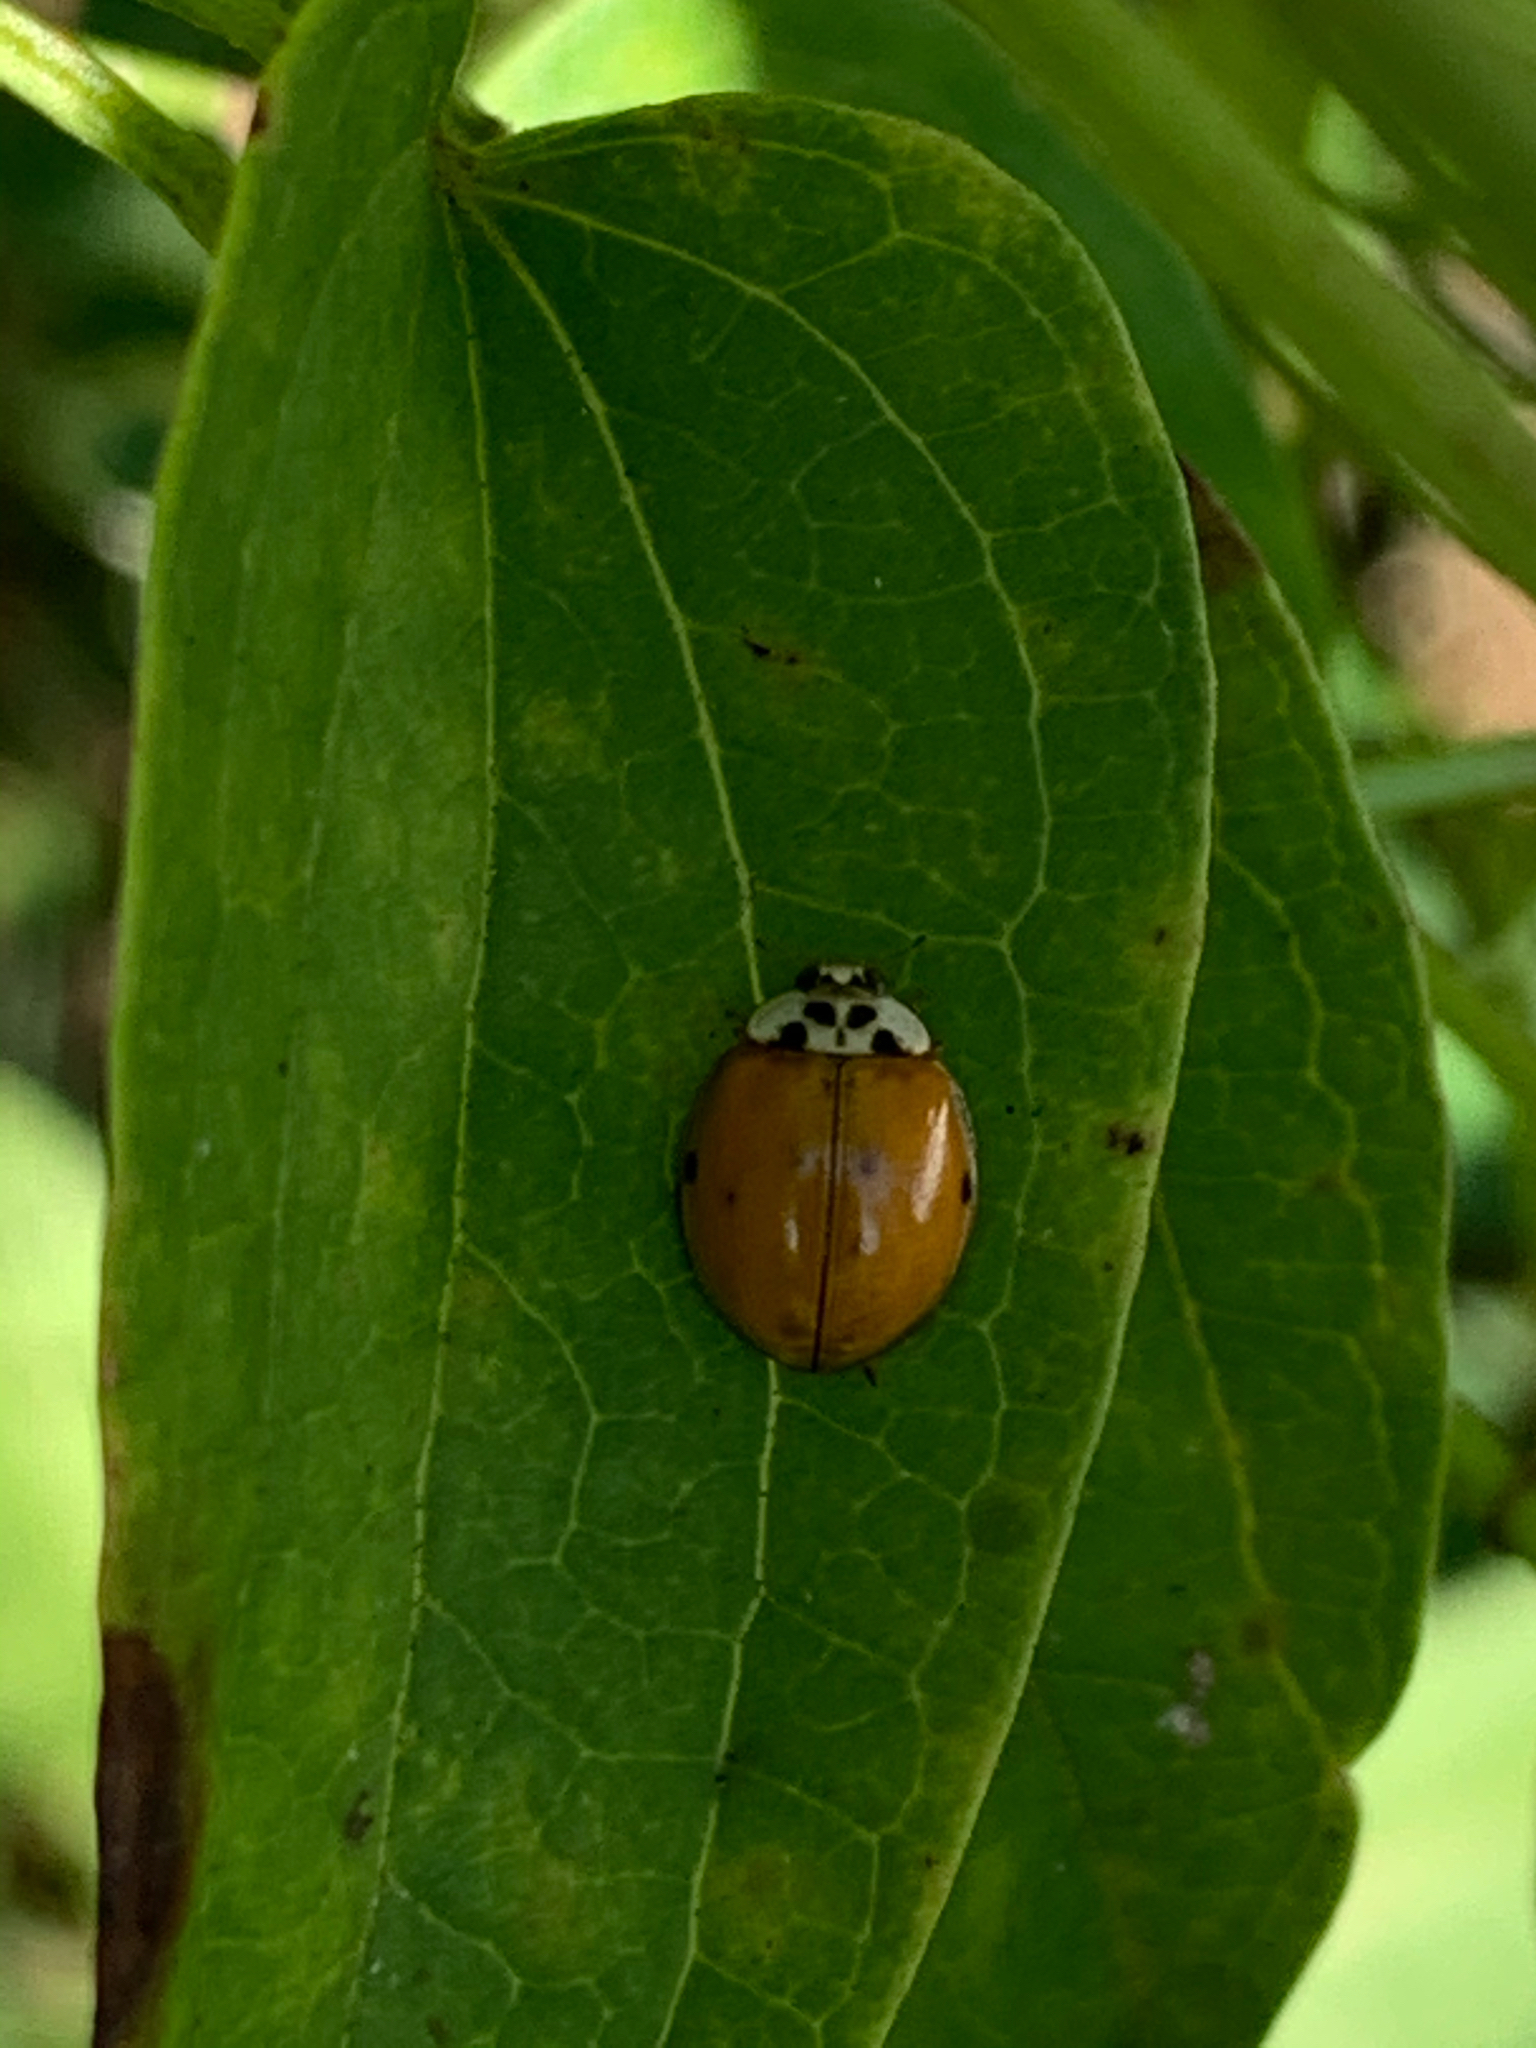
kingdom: Animalia
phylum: Arthropoda
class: Insecta
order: Coleoptera
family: Coccinellidae
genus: Harmonia
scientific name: Harmonia axyridis
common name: Harlequin ladybird
